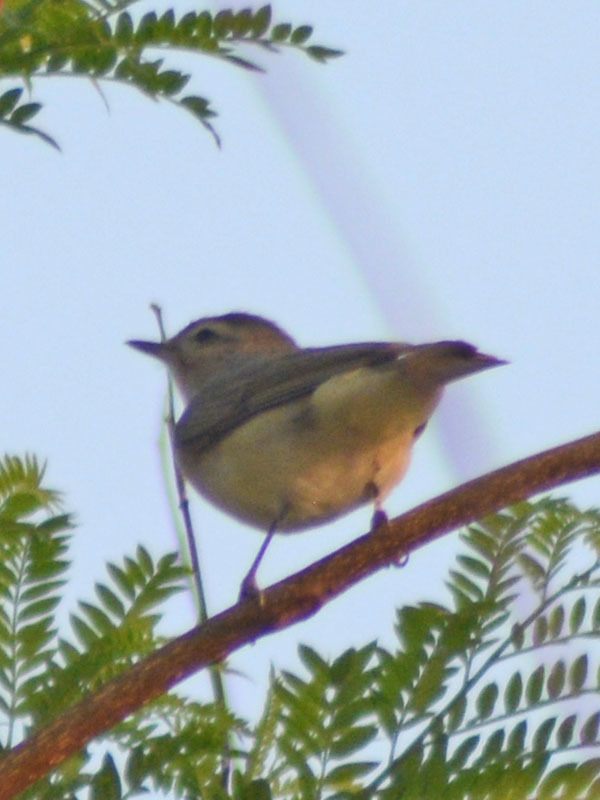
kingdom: Animalia
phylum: Chordata
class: Aves
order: Passeriformes
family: Vireonidae
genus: Vireo
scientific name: Vireo gilvus
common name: Warbling vireo
